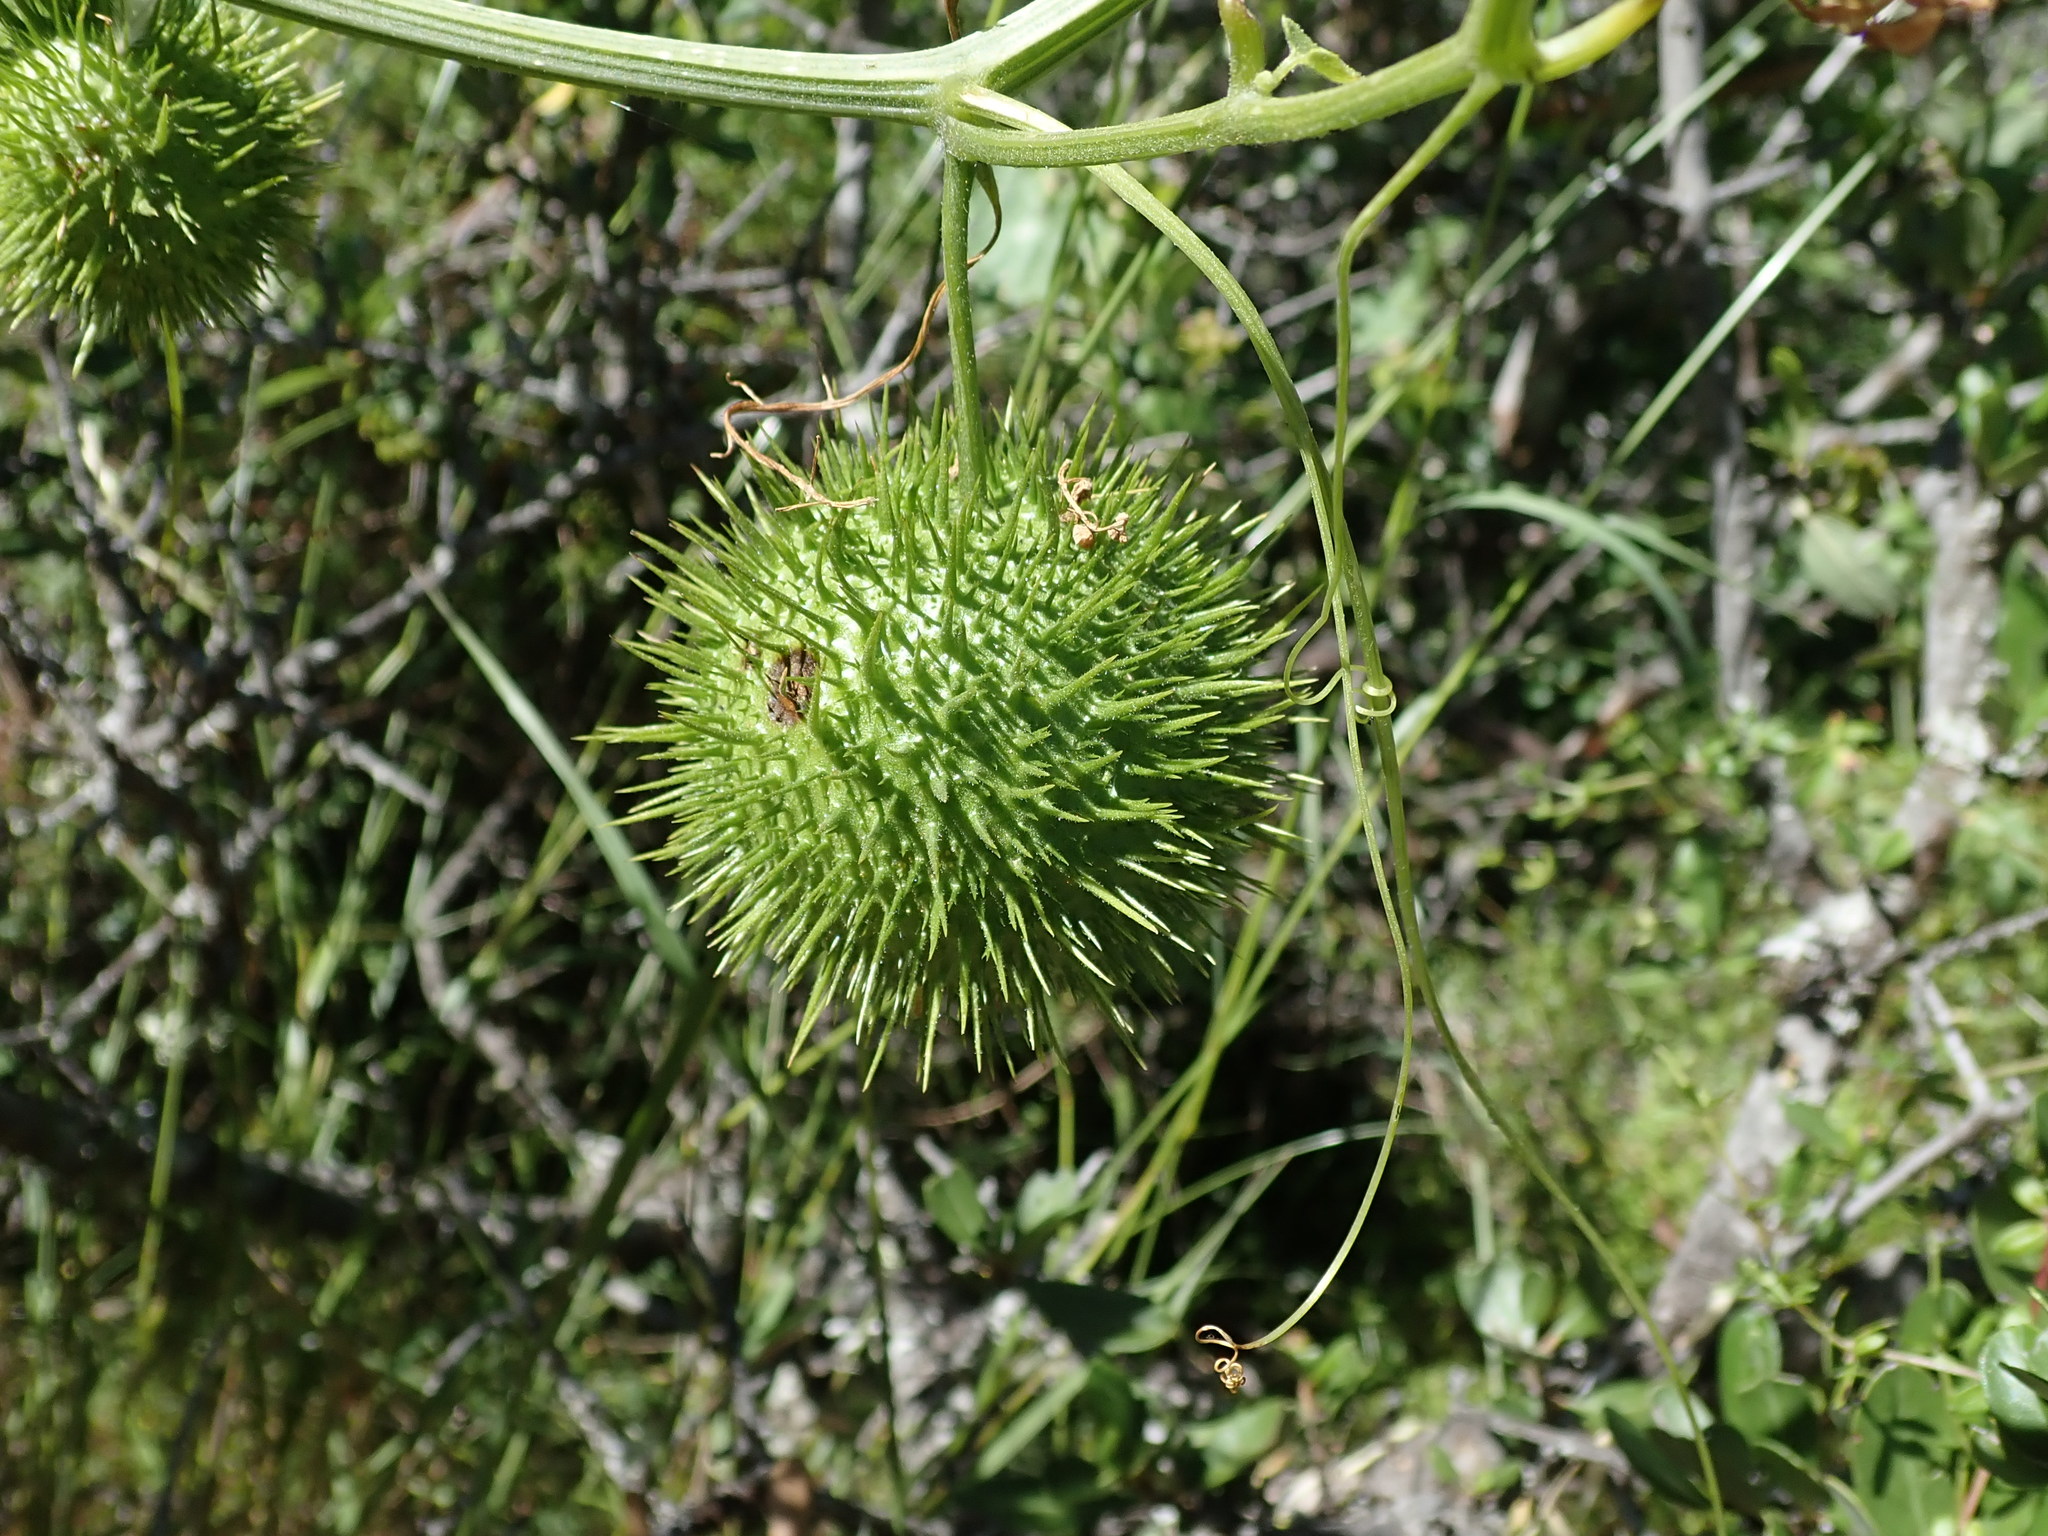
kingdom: Plantae
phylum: Tracheophyta
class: Magnoliopsida
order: Cucurbitales
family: Cucurbitaceae
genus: Marah
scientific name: Marah fabacea
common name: California manroot
